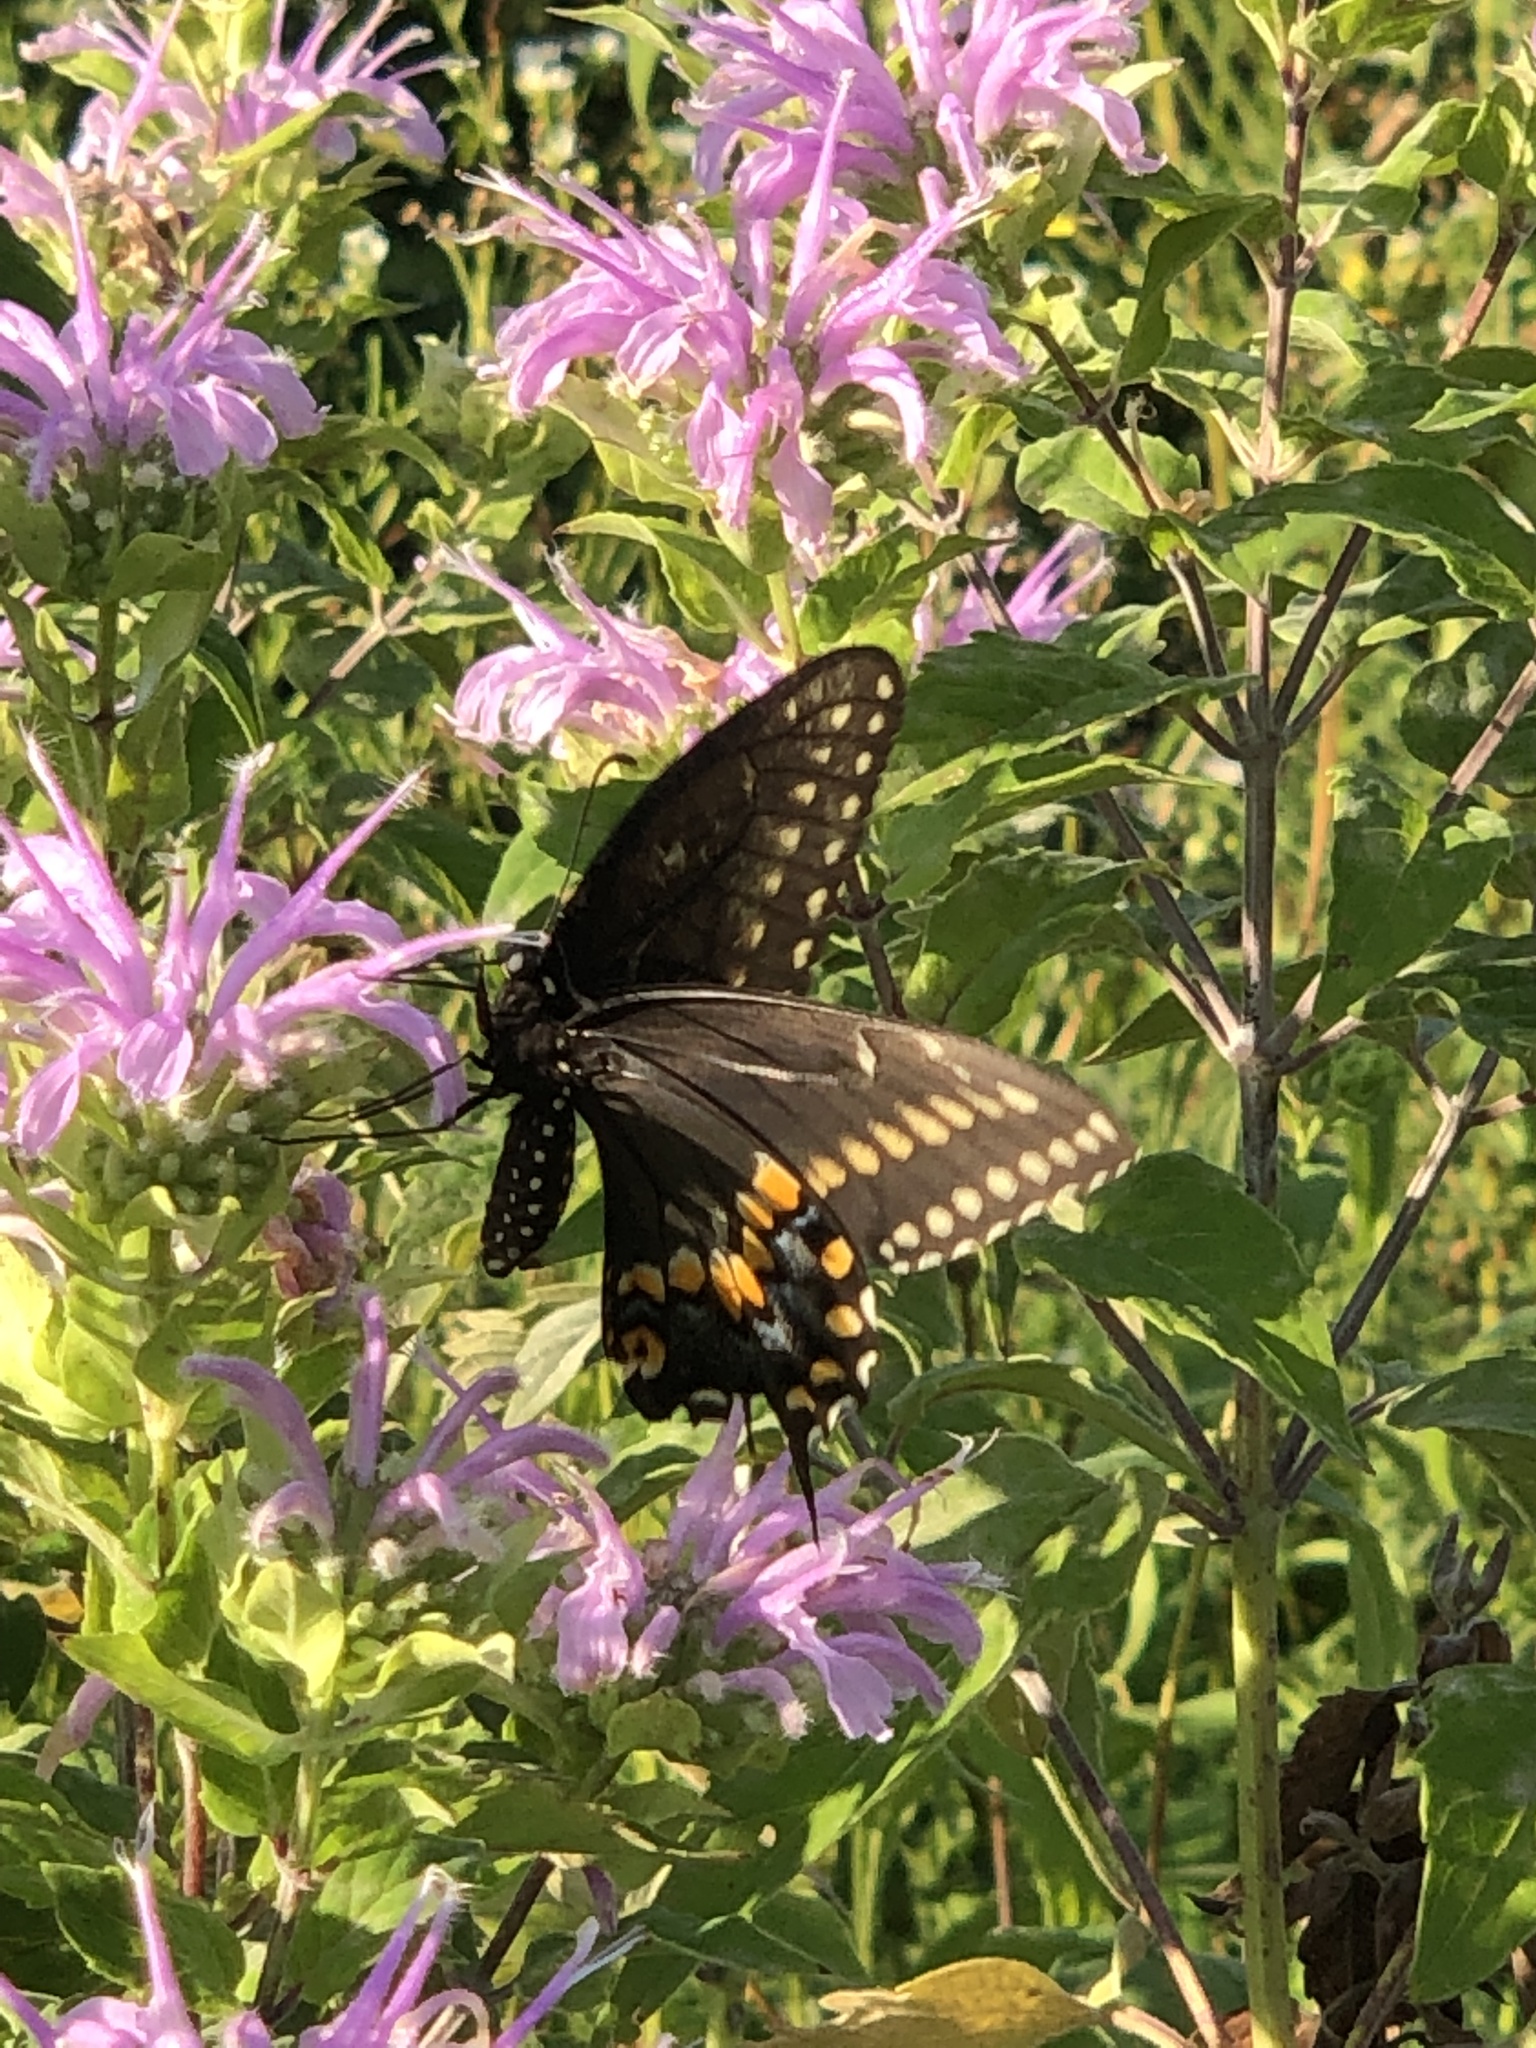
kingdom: Animalia
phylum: Arthropoda
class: Insecta
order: Lepidoptera
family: Papilionidae
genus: Papilio
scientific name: Papilio polyxenes
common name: Black swallowtail
